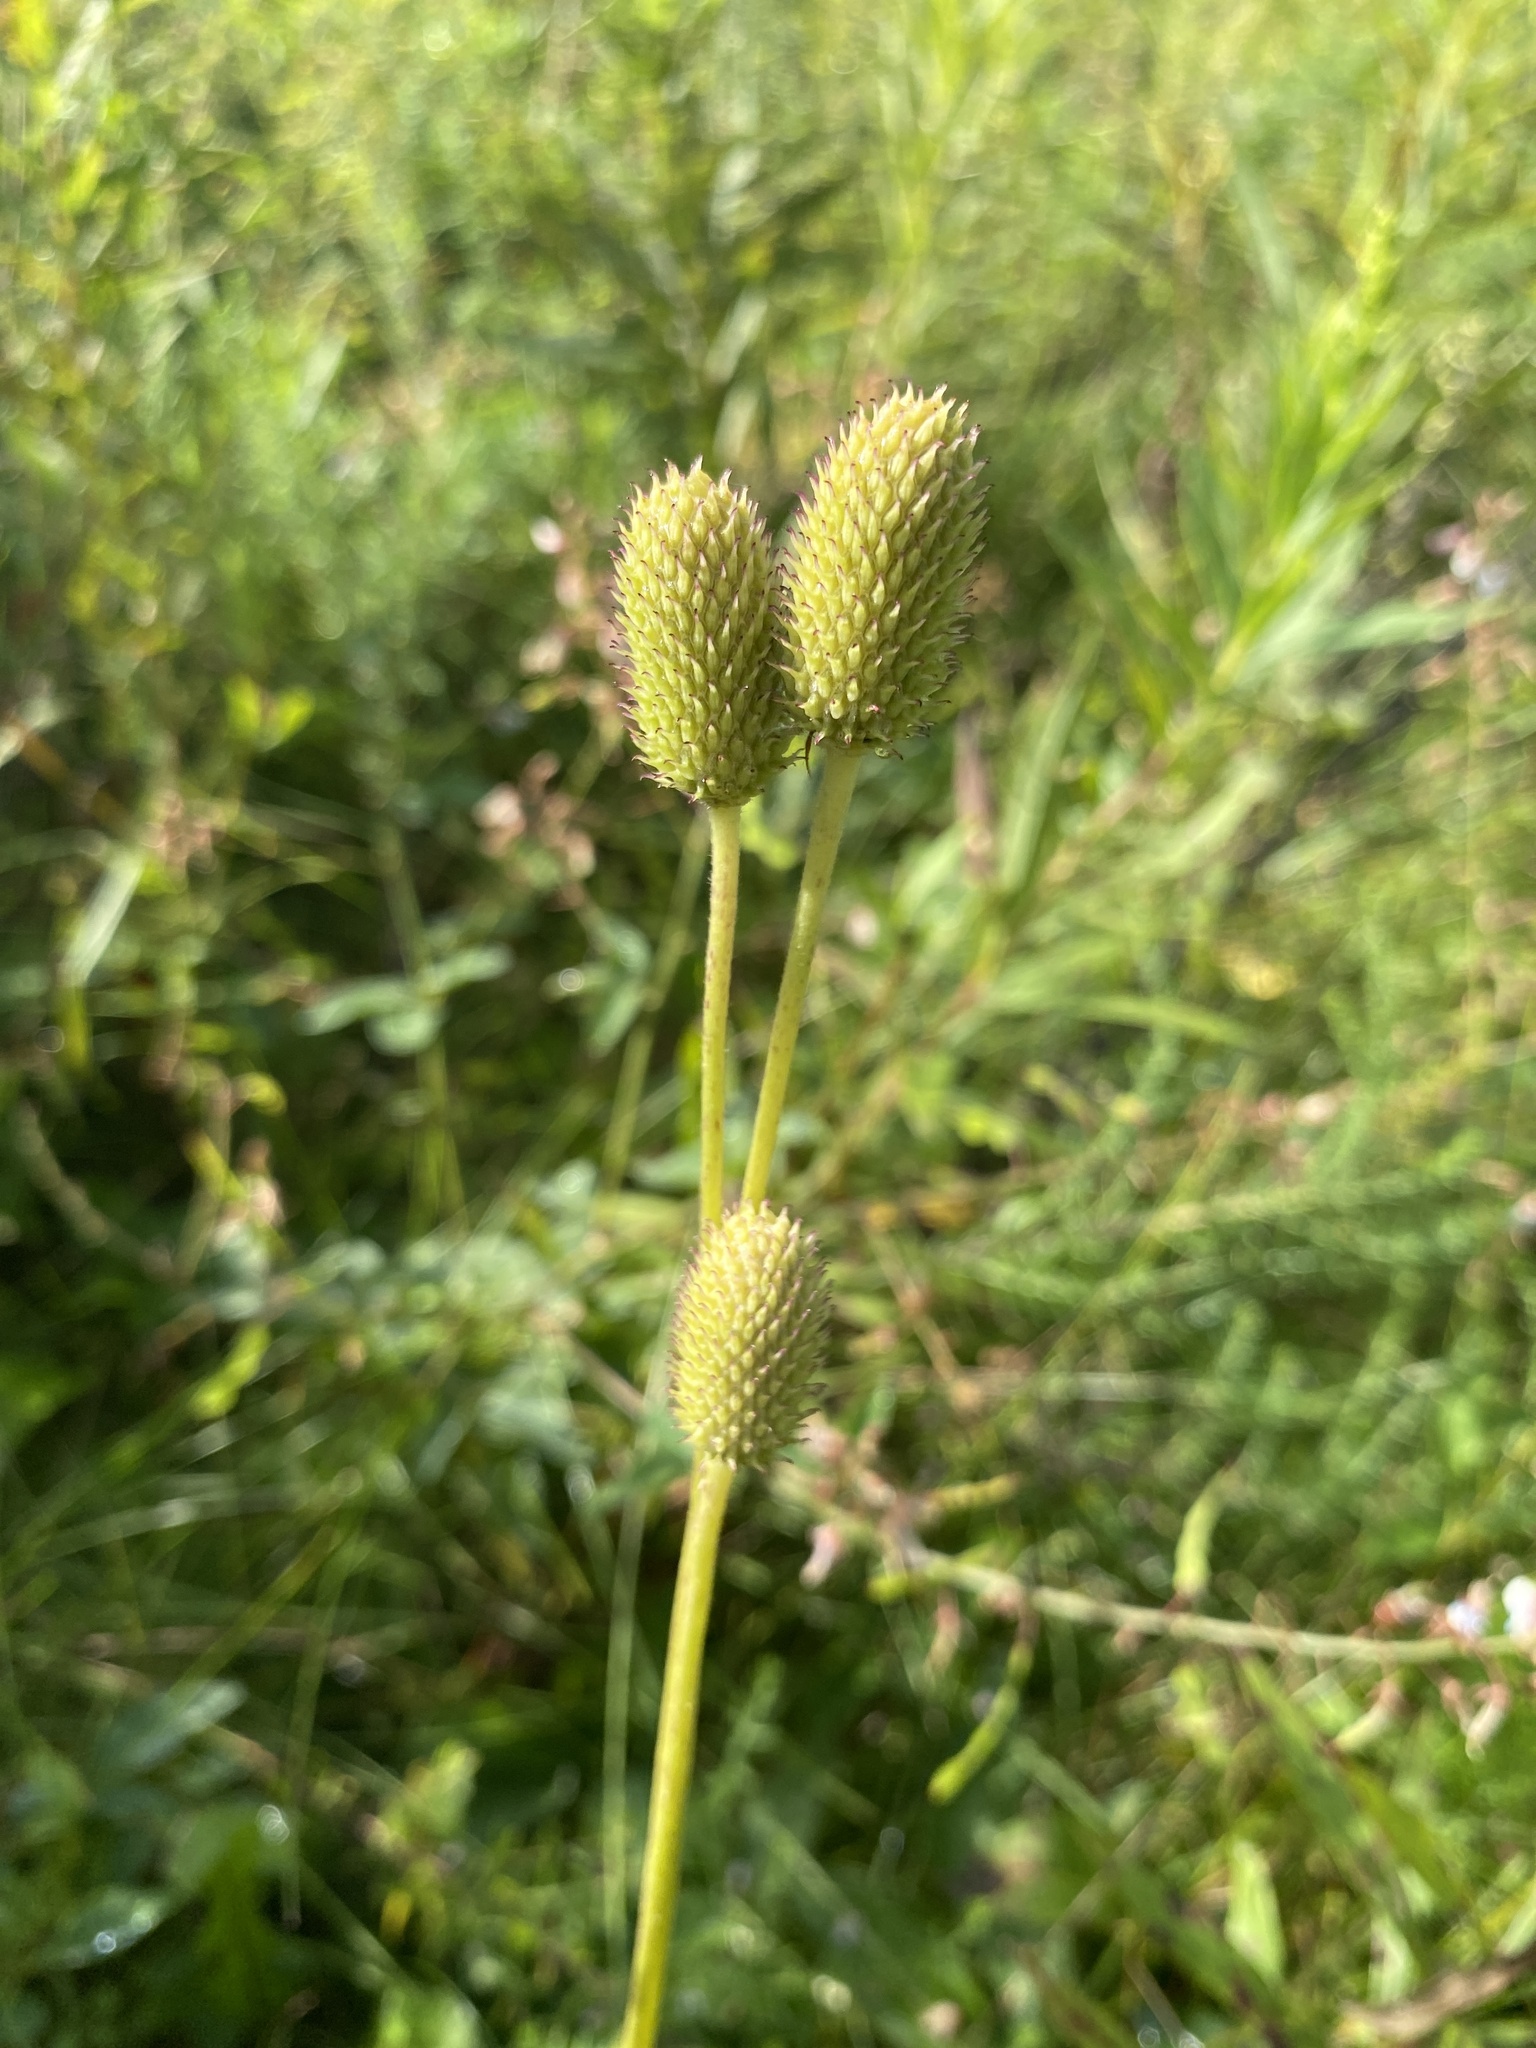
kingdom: Plantae
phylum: Tracheophyta
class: Magnoliopsida
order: Ranunculales
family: Ranunculaceae
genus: Anemone
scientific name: Anemone virginiana
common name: Tall anemone
